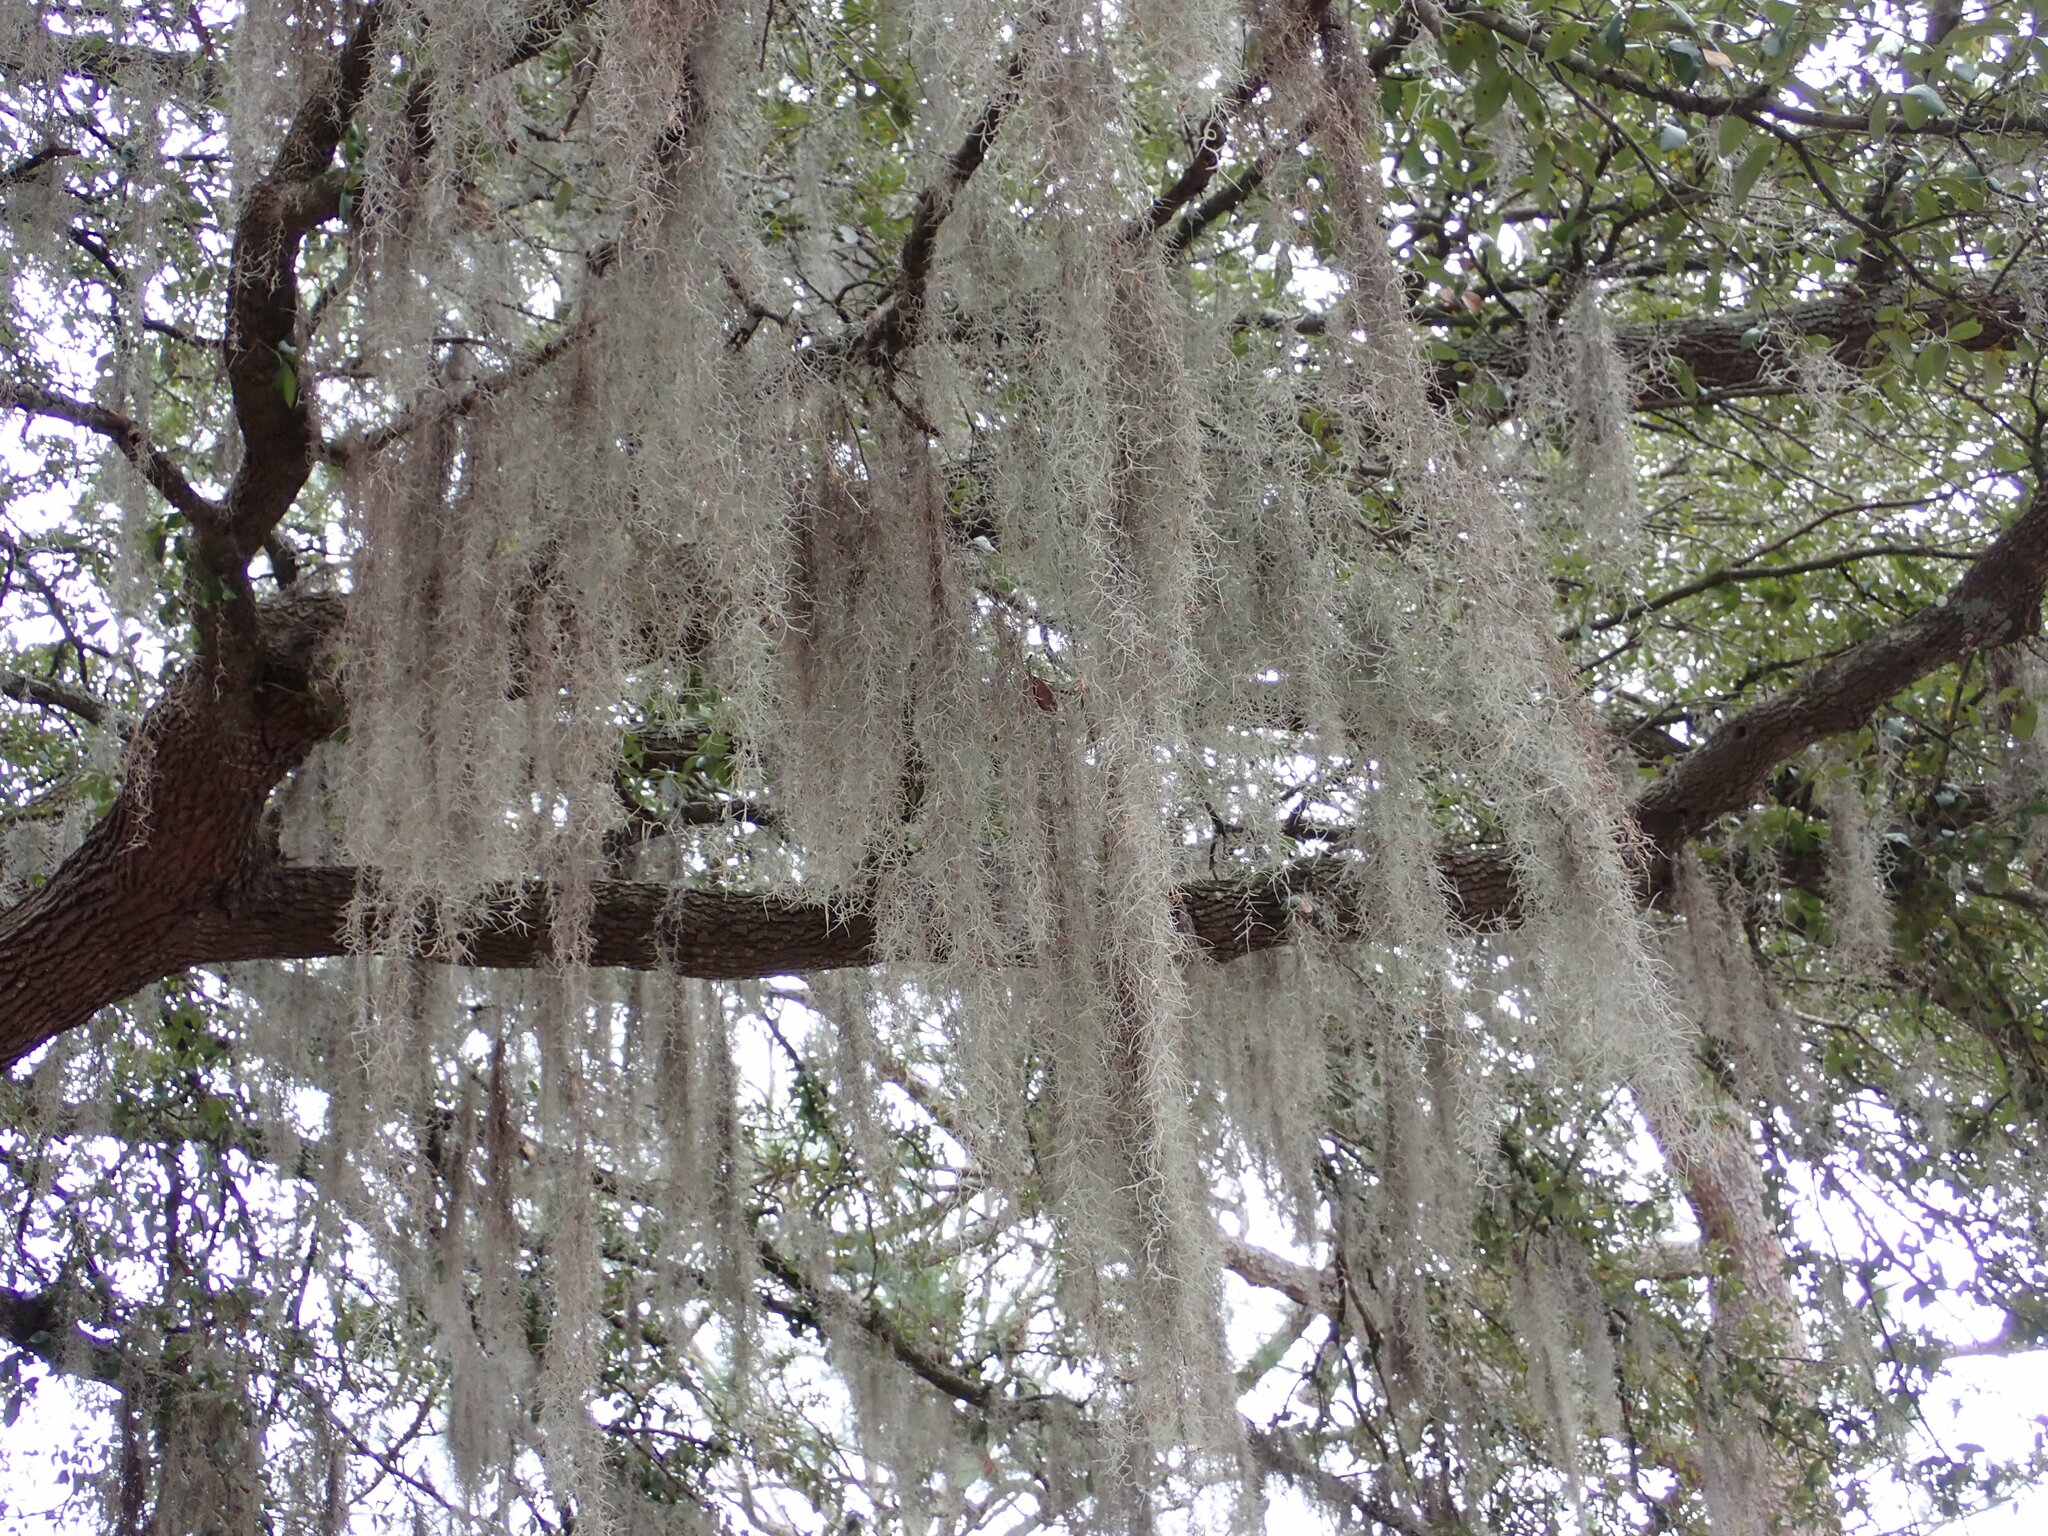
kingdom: Plantae
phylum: Tracheophyta
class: Liliopsida
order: Poales
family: Bromeliaceae
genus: Tillandsia
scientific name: Tillandsia usneoides
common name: Spanish moss
